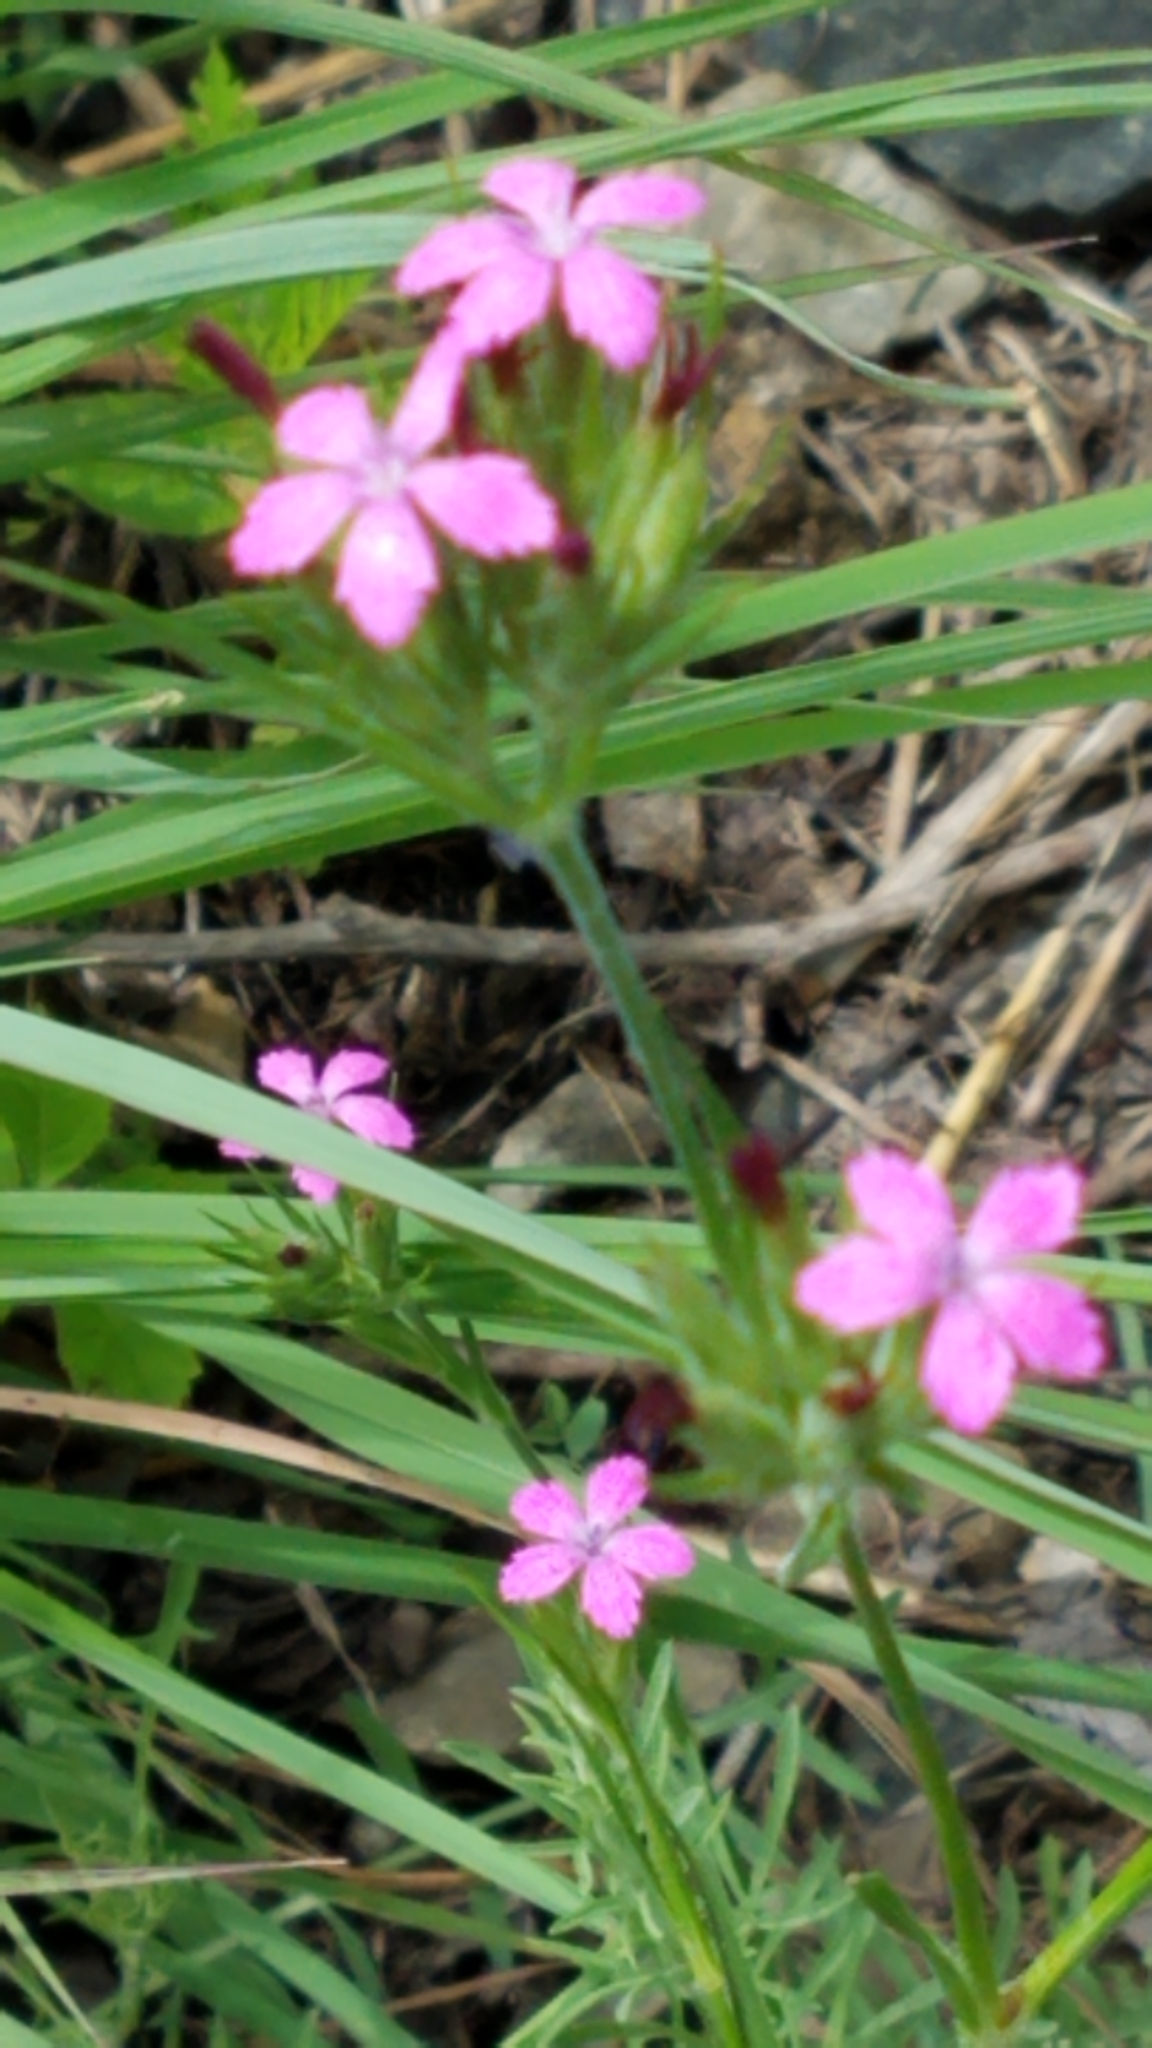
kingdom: Plantae
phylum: Tracheophyta
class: Magnoliopsida
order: Caryophyllales
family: Caryophyllaceae
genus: Dianthus
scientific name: Dianthus armeria
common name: Deptford pink
